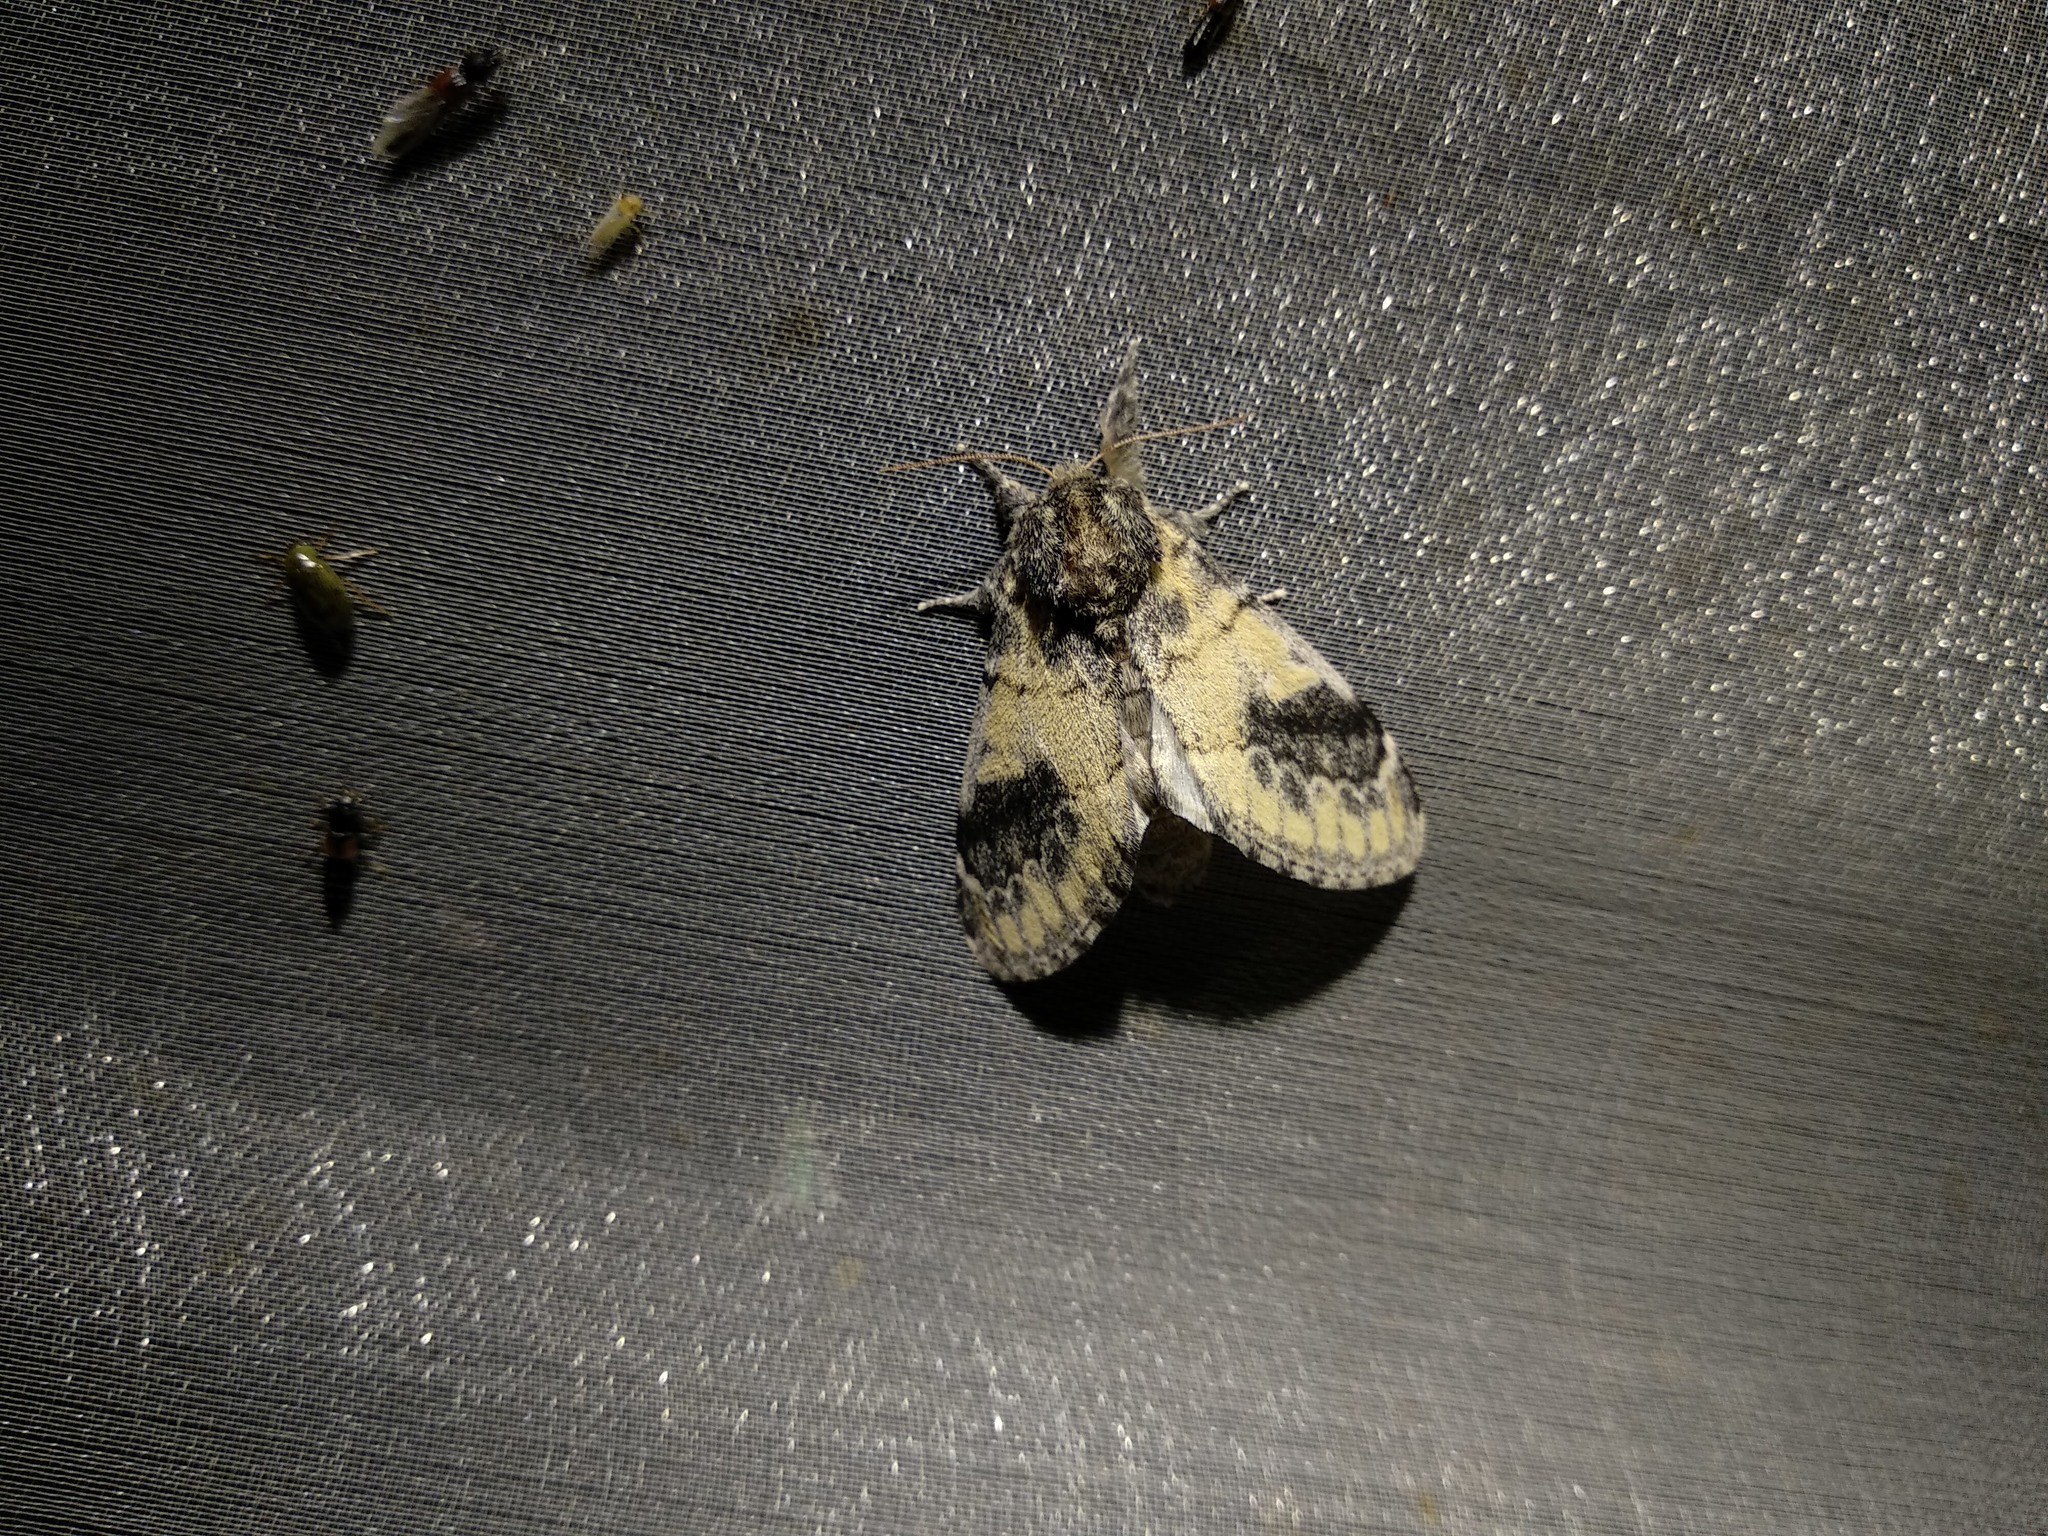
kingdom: Animalia
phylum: Arthropoda
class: Insecta
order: Lepidoptera
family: Notodontidae
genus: Notodonta
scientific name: Notodonta tritophus
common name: Three-humped prominent
